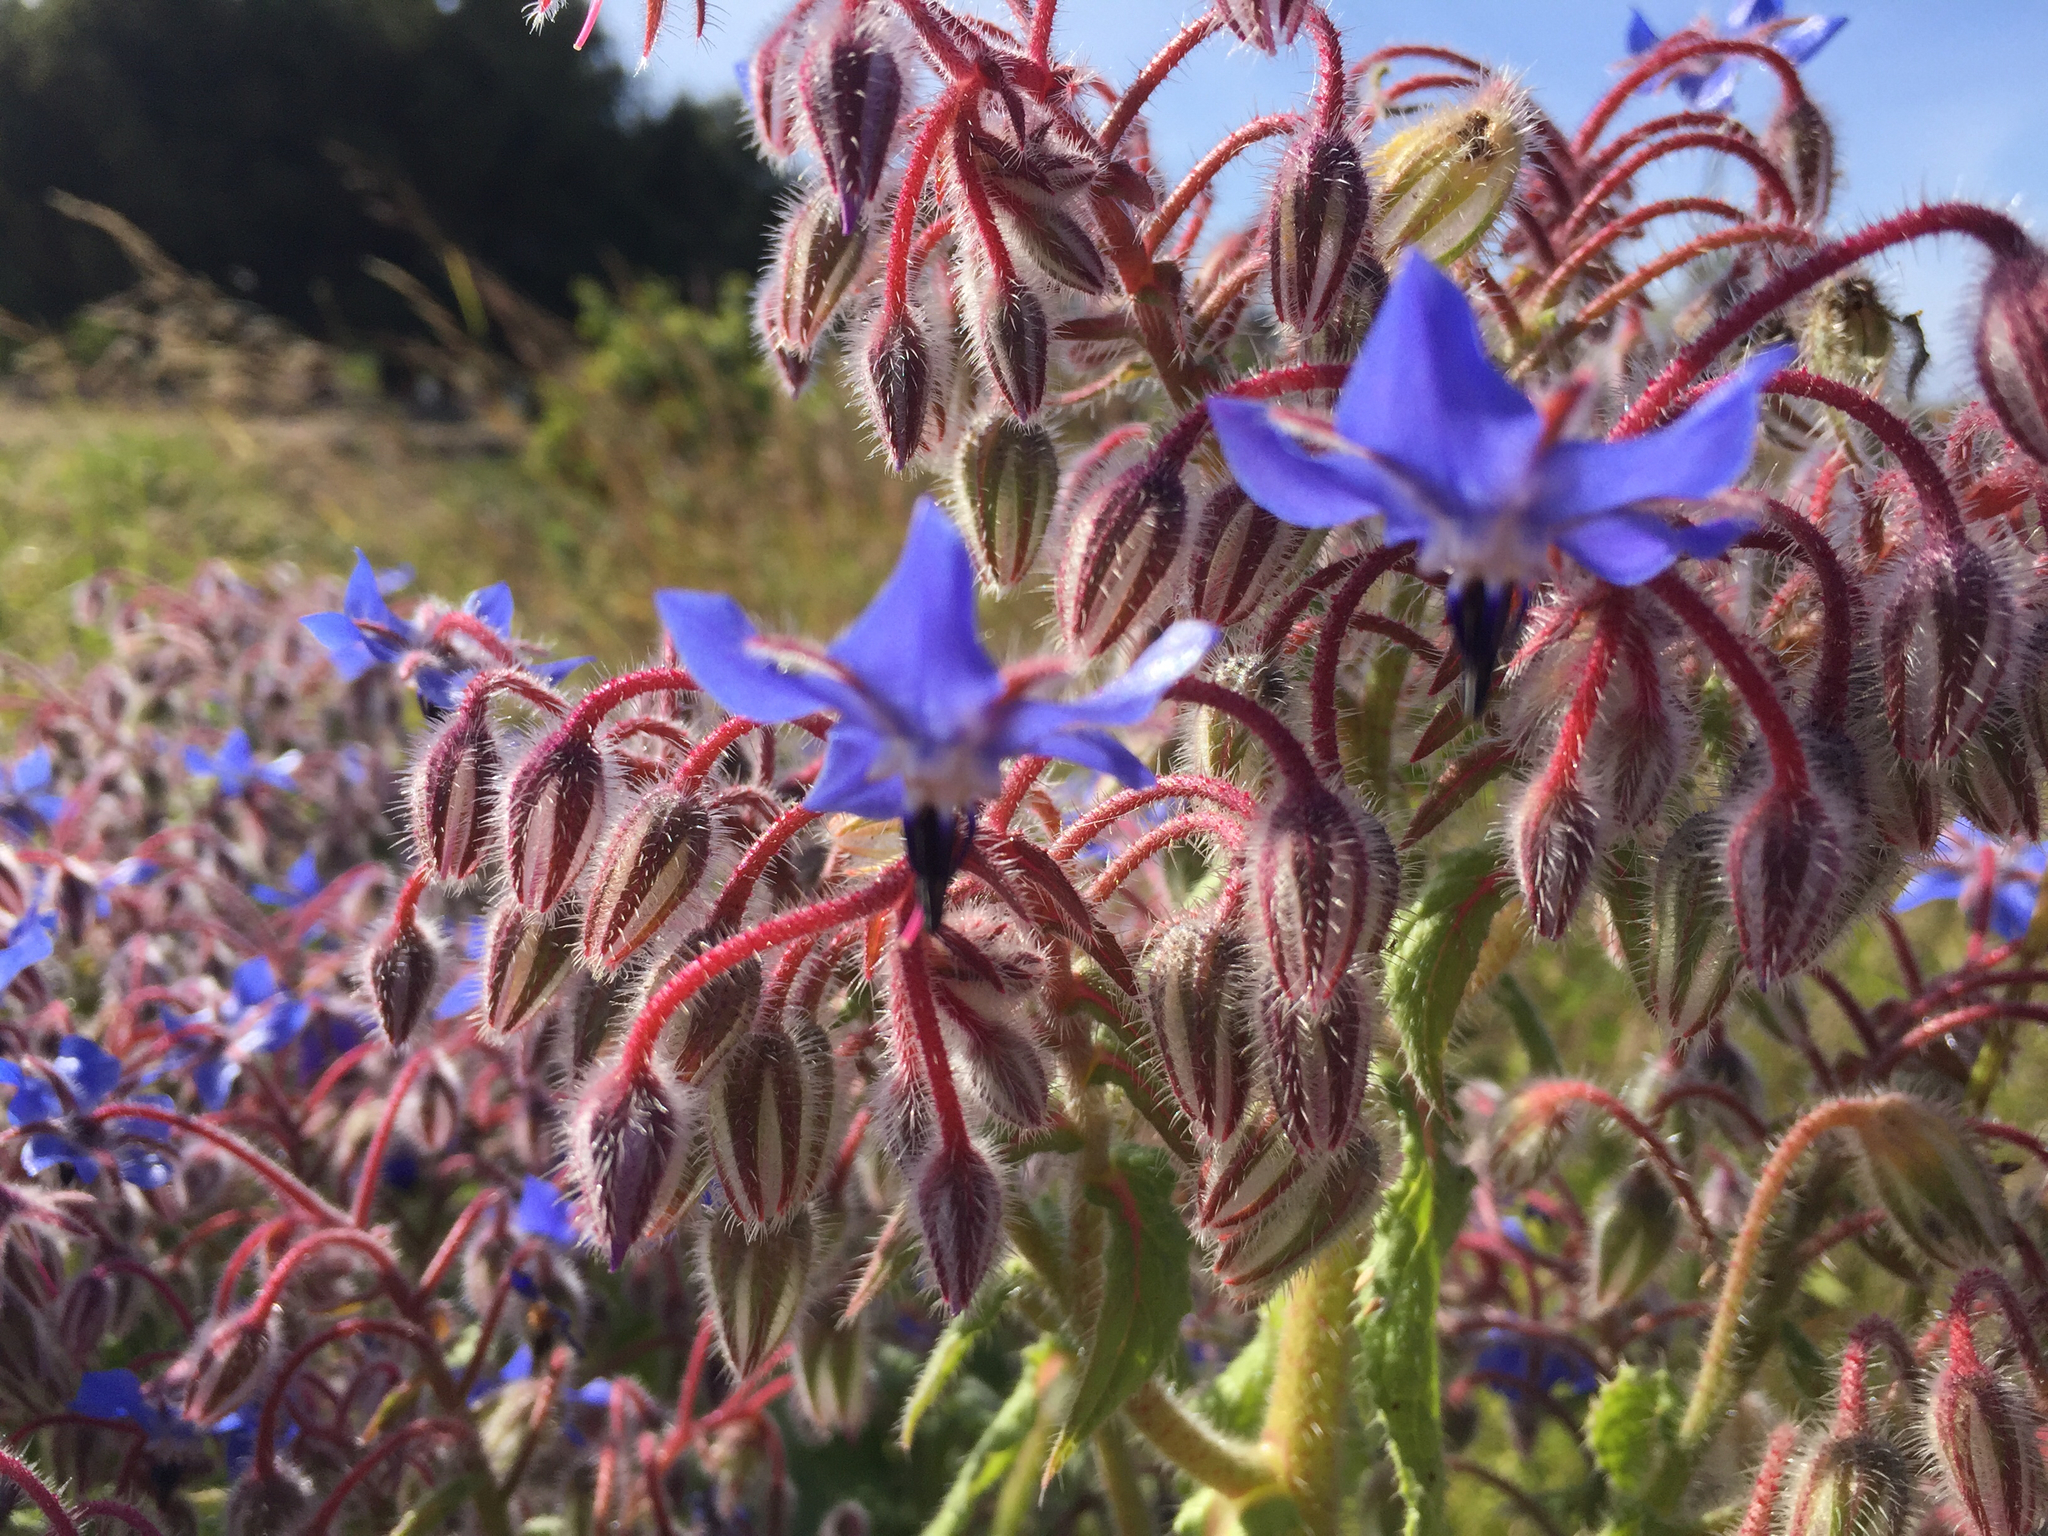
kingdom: Plantae
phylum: Tracheophyta
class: Magnoliopsida
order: Boraginales
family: Boraginaceae
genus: Borago
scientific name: Borago officinalis
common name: Borage
